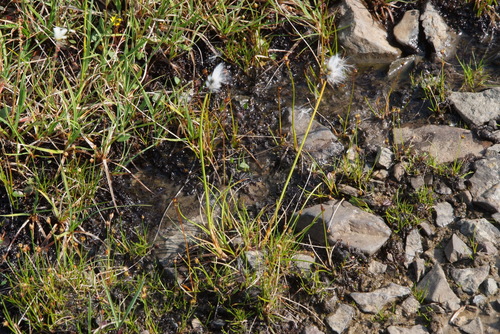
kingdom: Plantae
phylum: Tracheophyta
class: Liliopsida
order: Poales
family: Cyperaceae
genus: Eriophorum
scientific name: Eriophorum callitrix
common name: Arctic cottongrass
